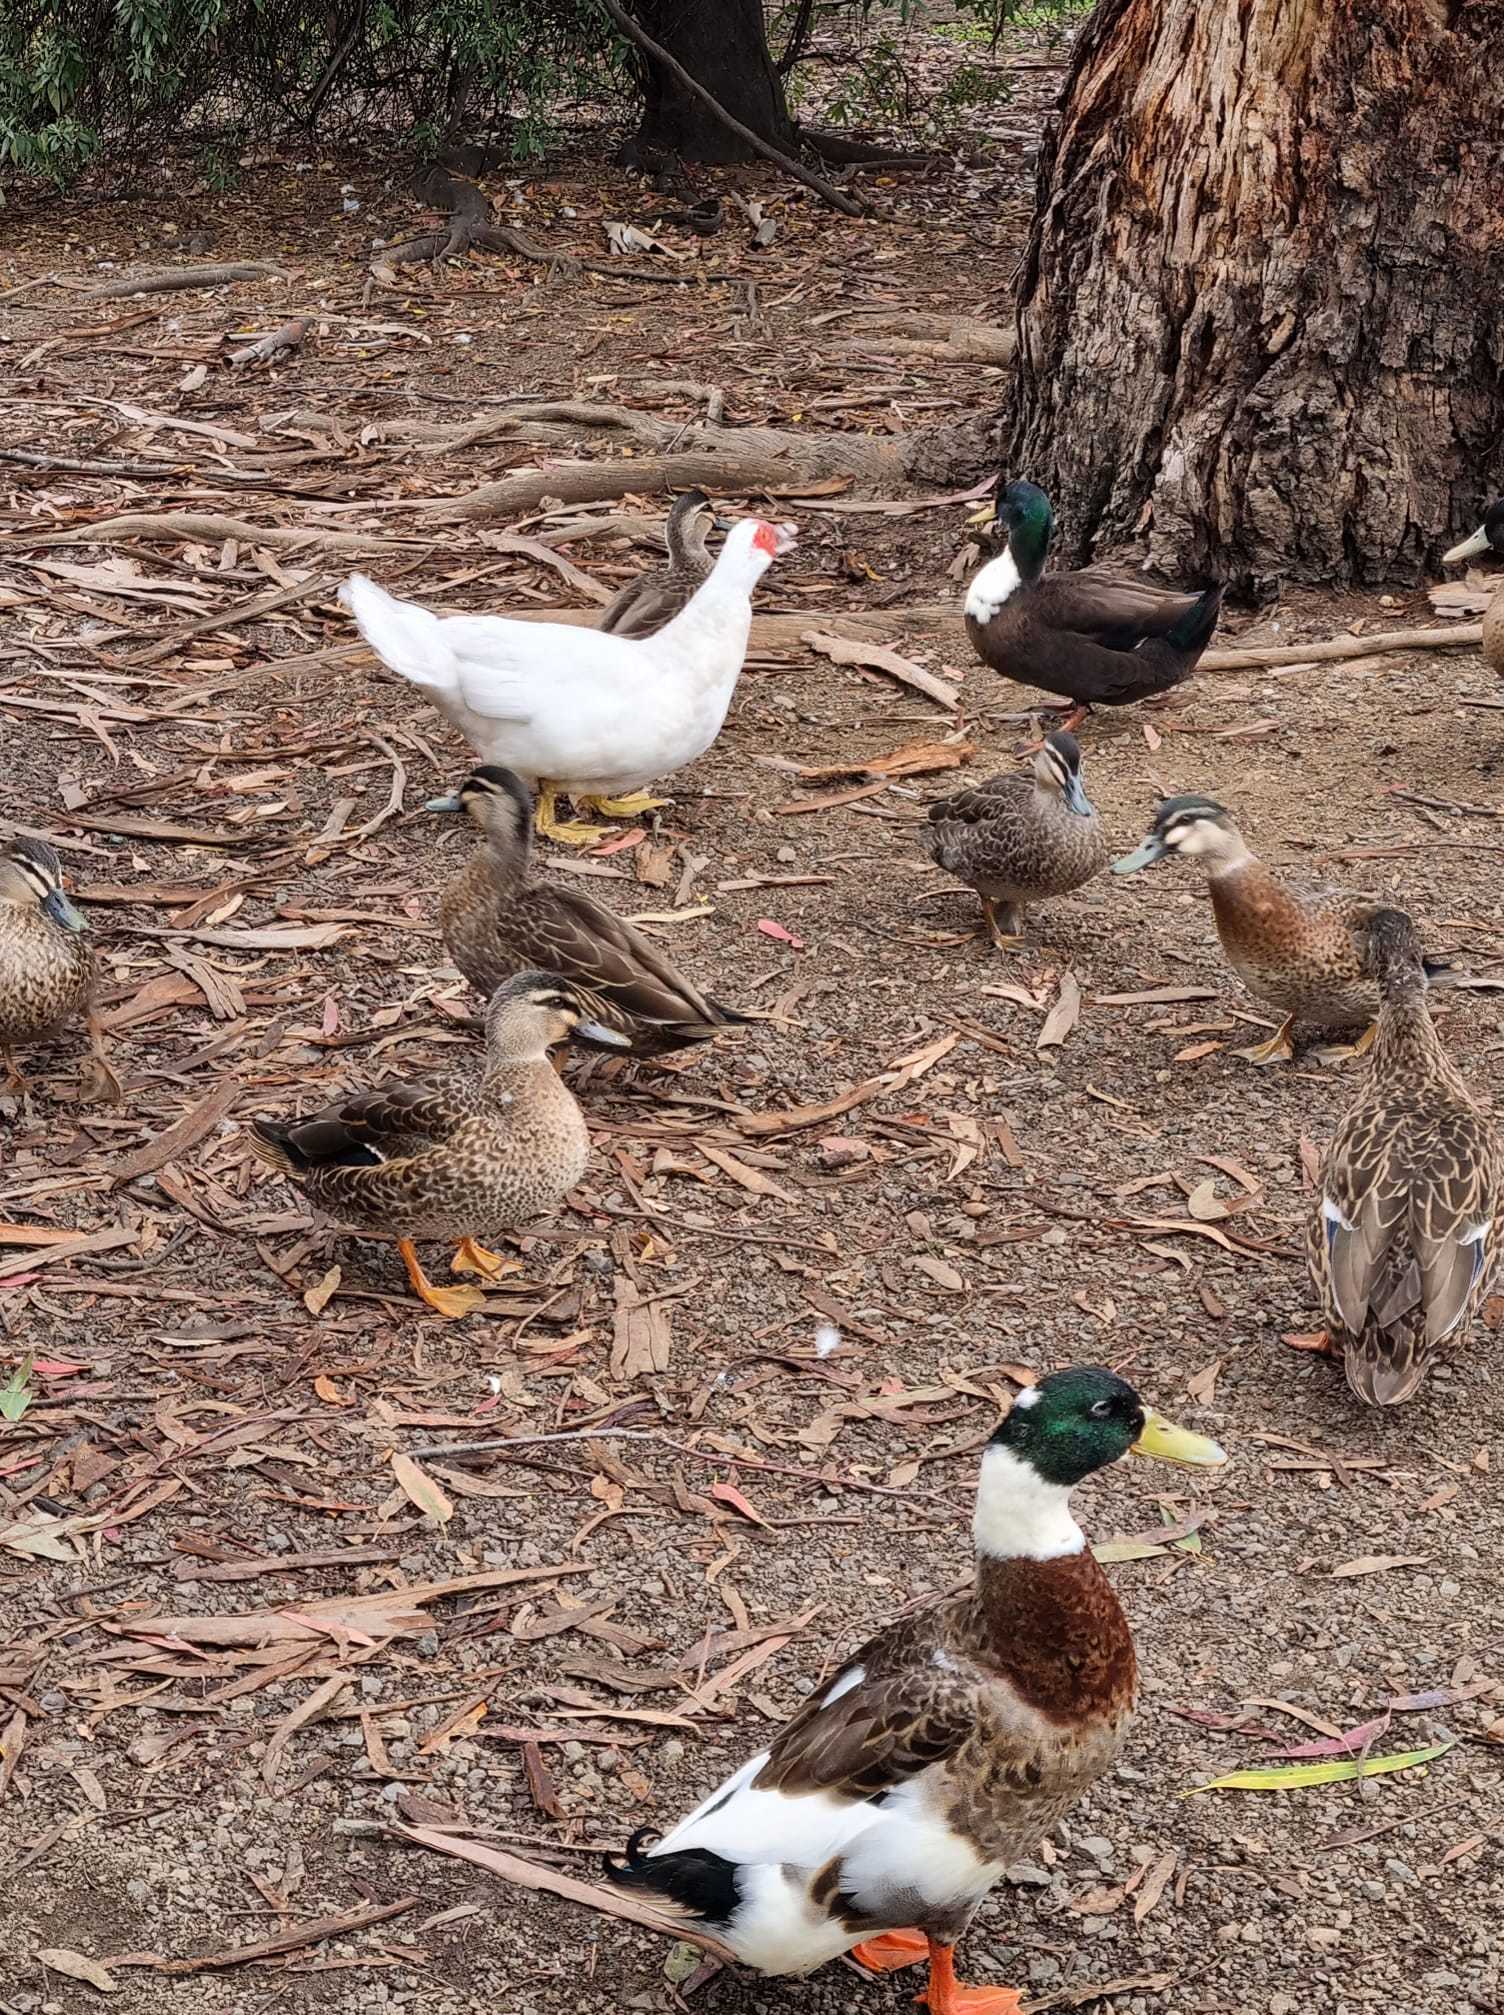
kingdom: Animalia
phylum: Chordata
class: Aves
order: Anseriformes
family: Anatidae
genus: Anas
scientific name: Anas
